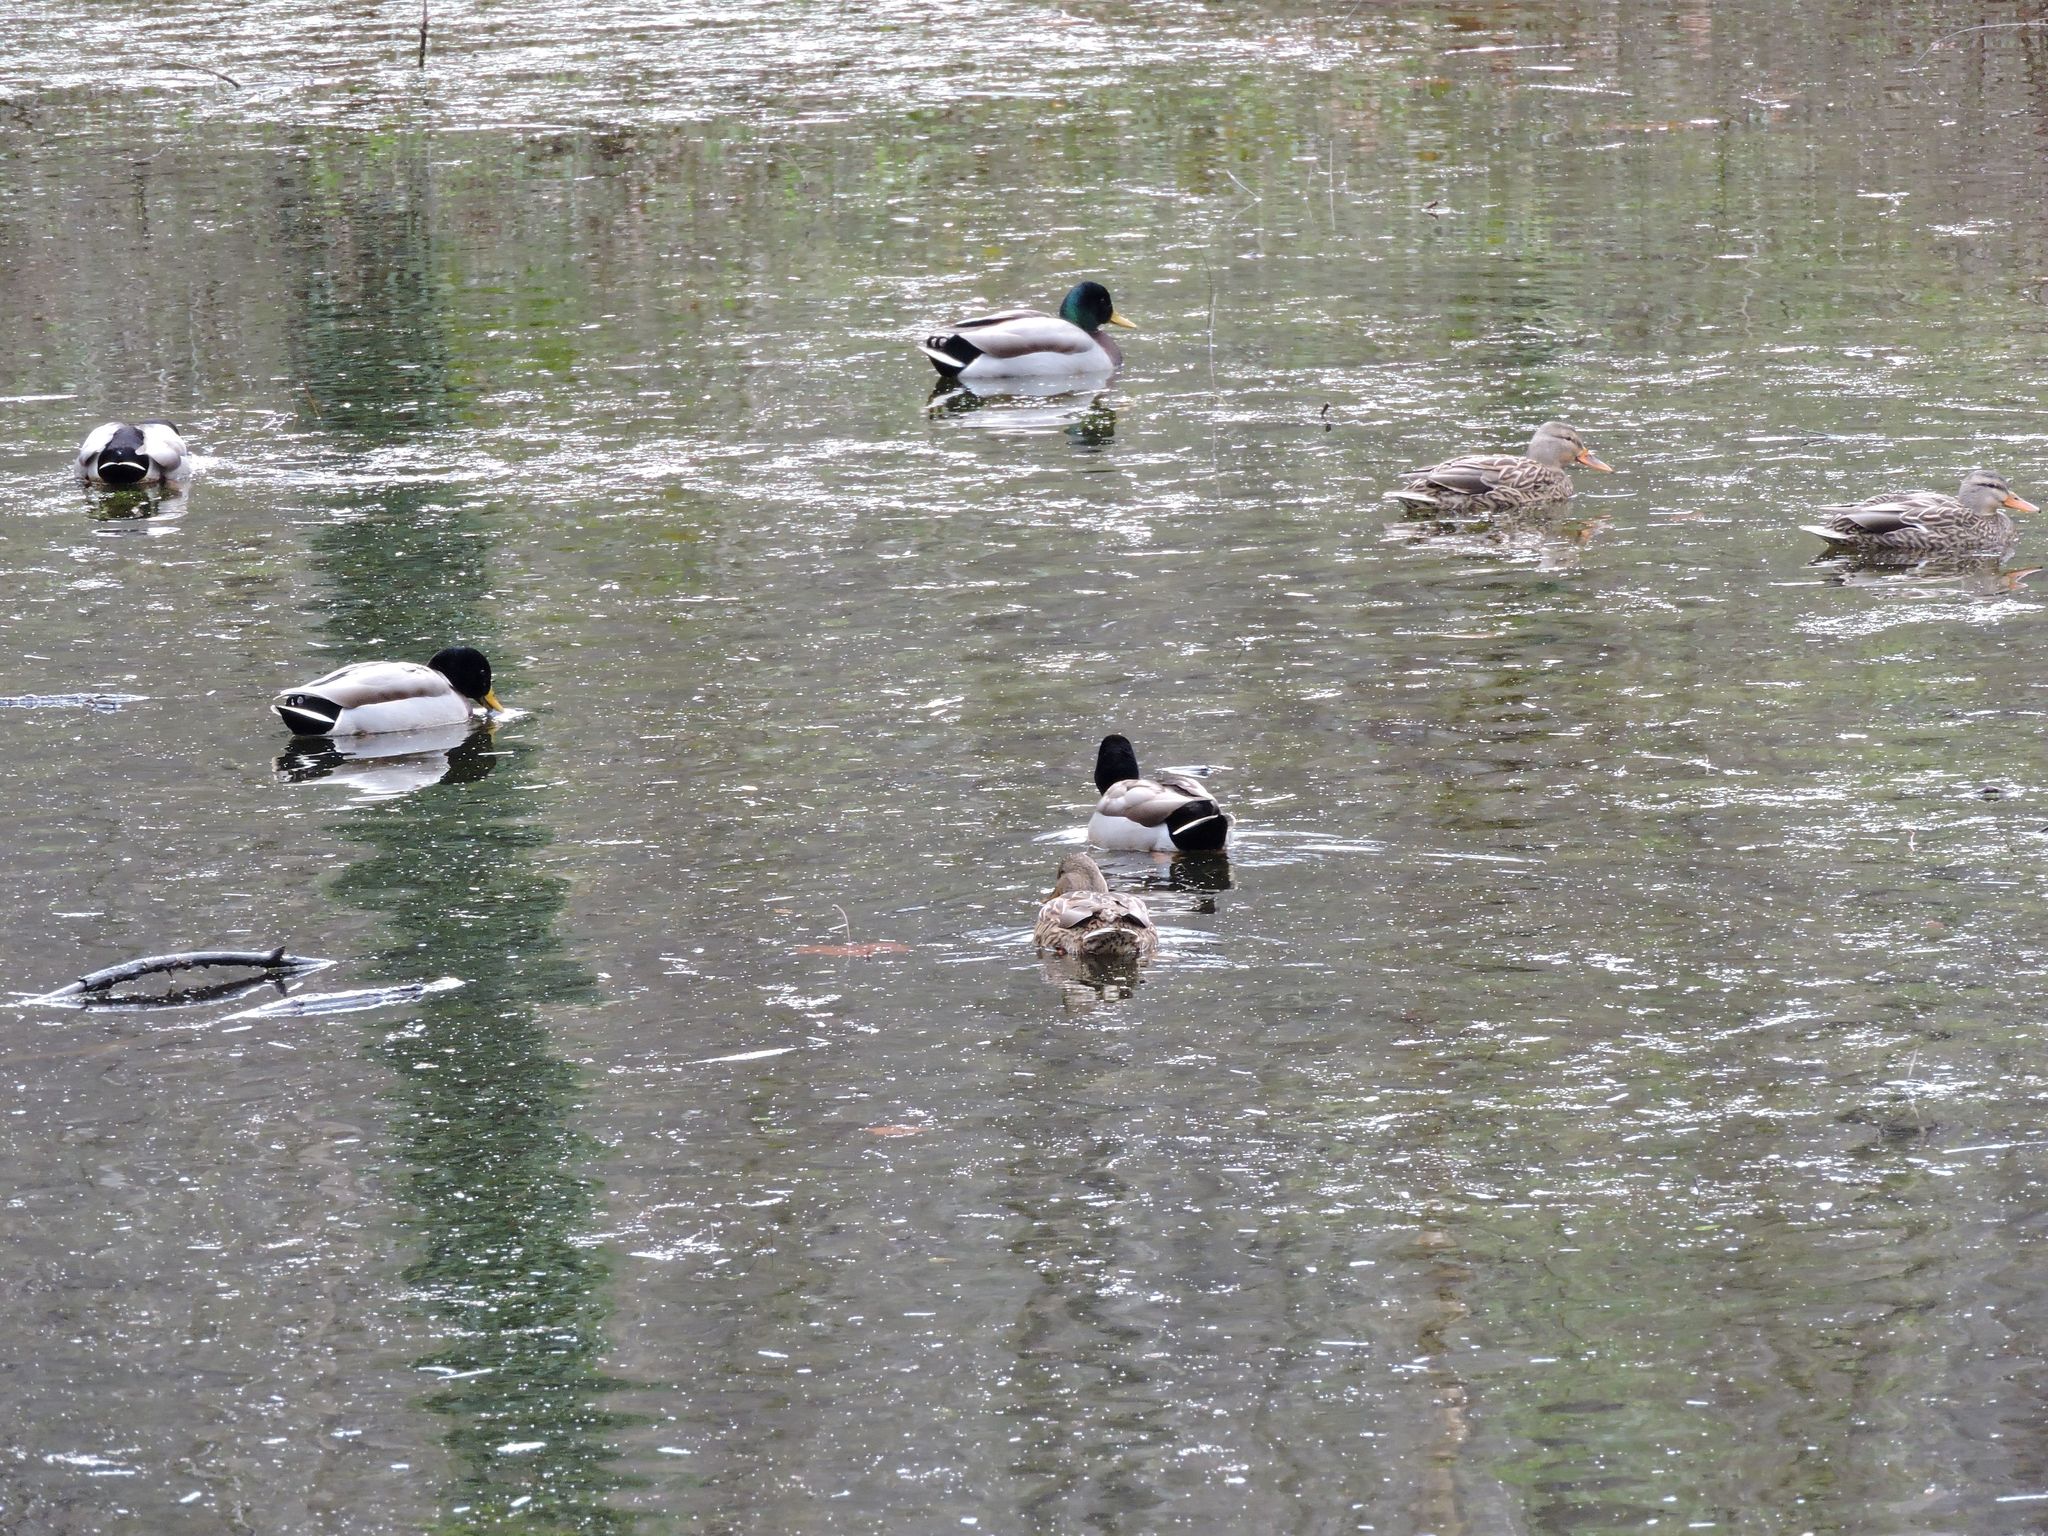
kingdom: Animalia
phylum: Chordata
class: Aves
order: Anseriformes
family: Anatidae
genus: Anas
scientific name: Anas platyrhynchos
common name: Mallard
